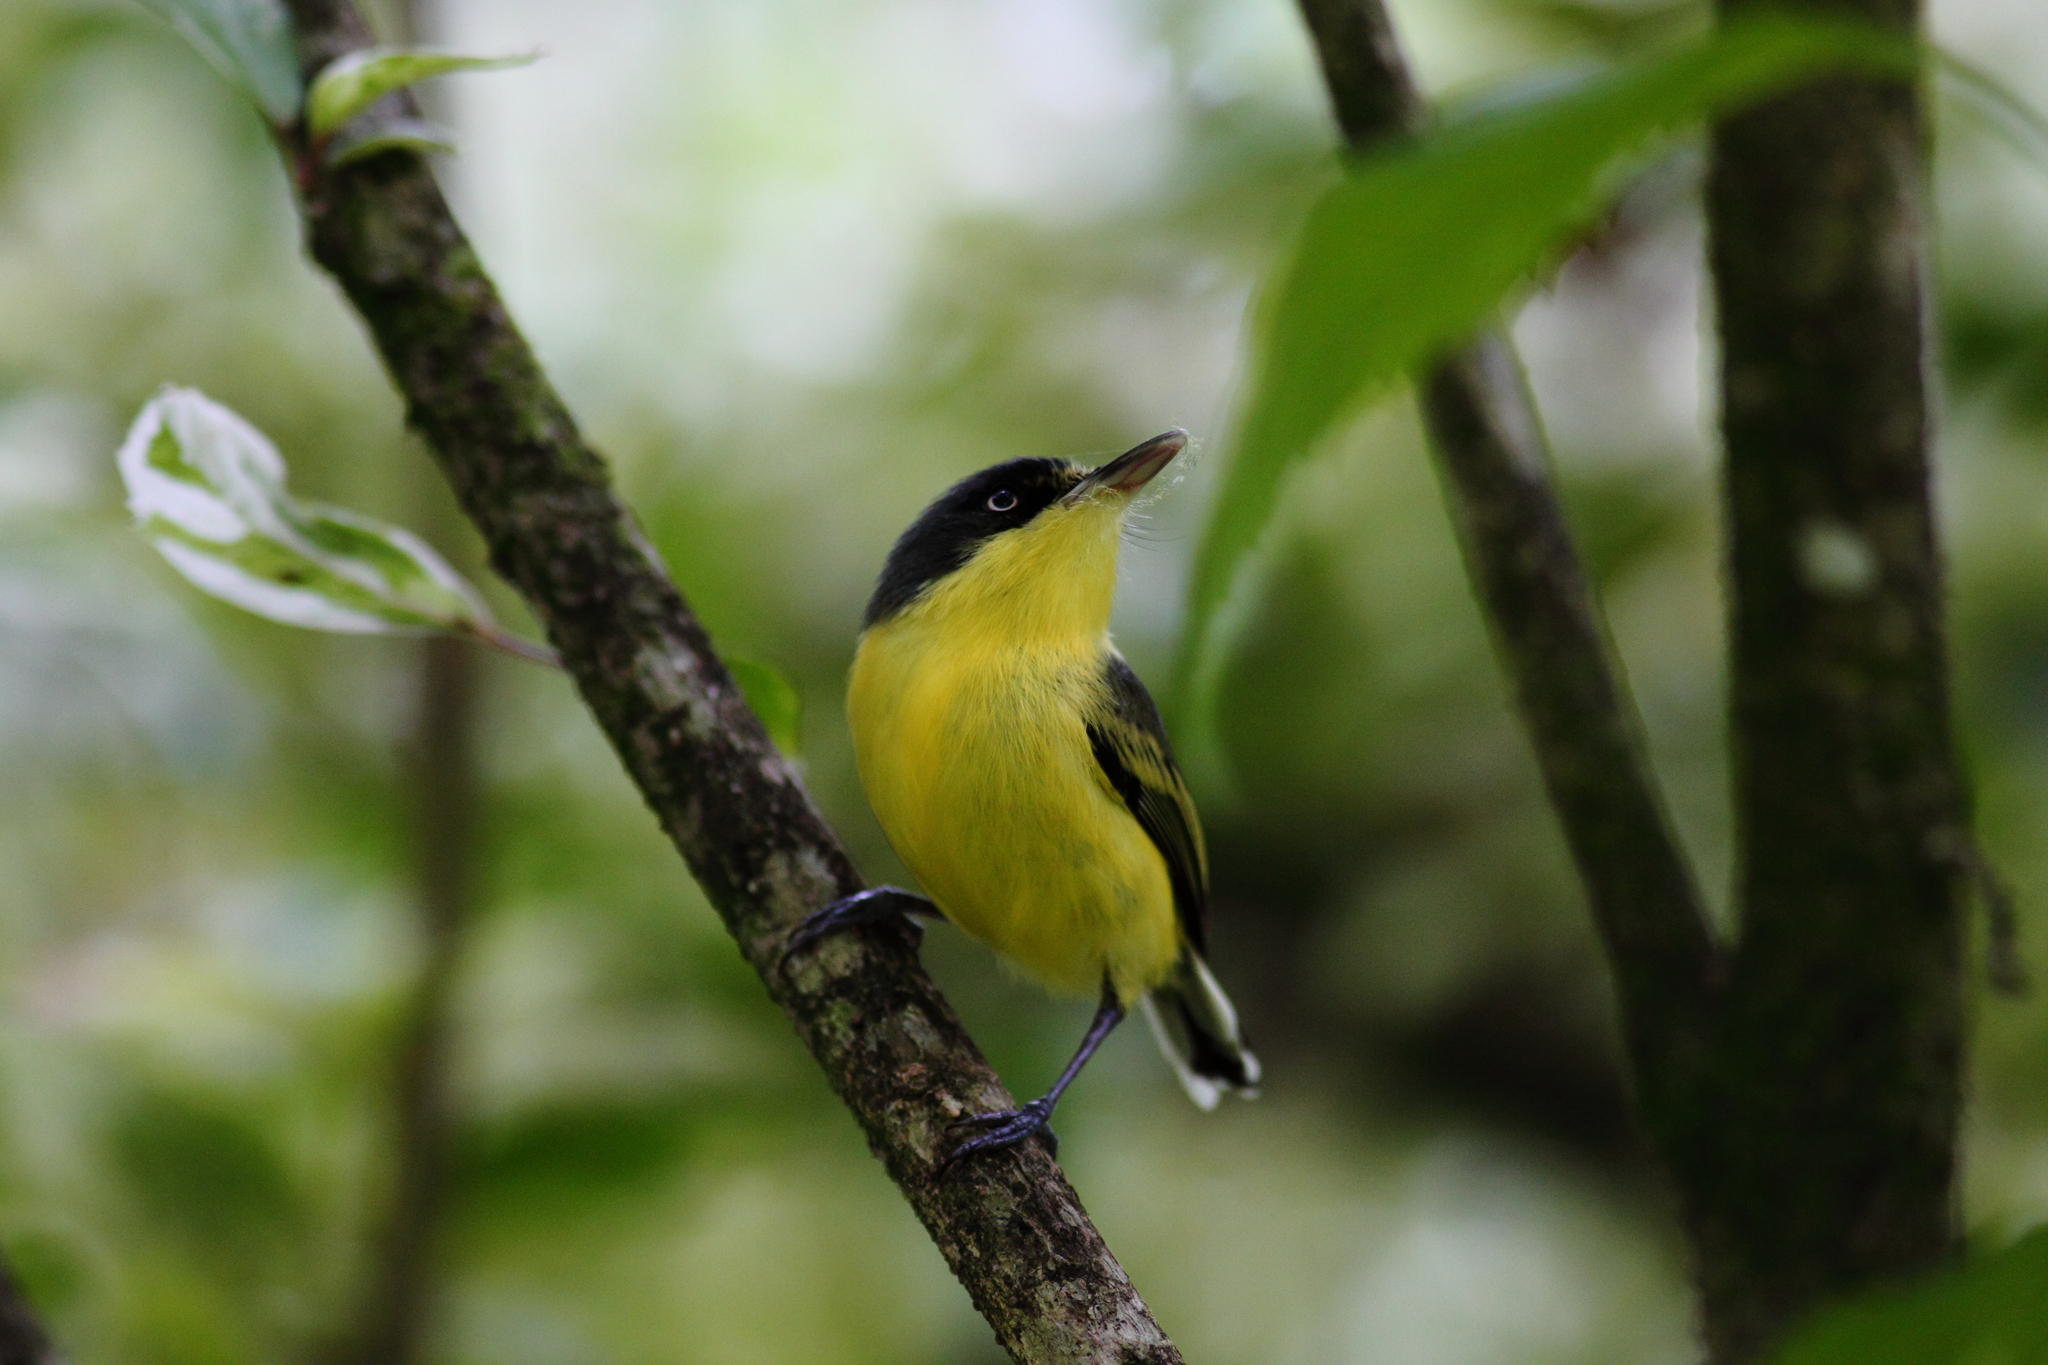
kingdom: Animalia
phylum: Chordata
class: Aves
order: Passeriformes
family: Tyrannidae
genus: Todirostrum
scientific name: Todirostrum cinereum
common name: Common tody-flycatcher
